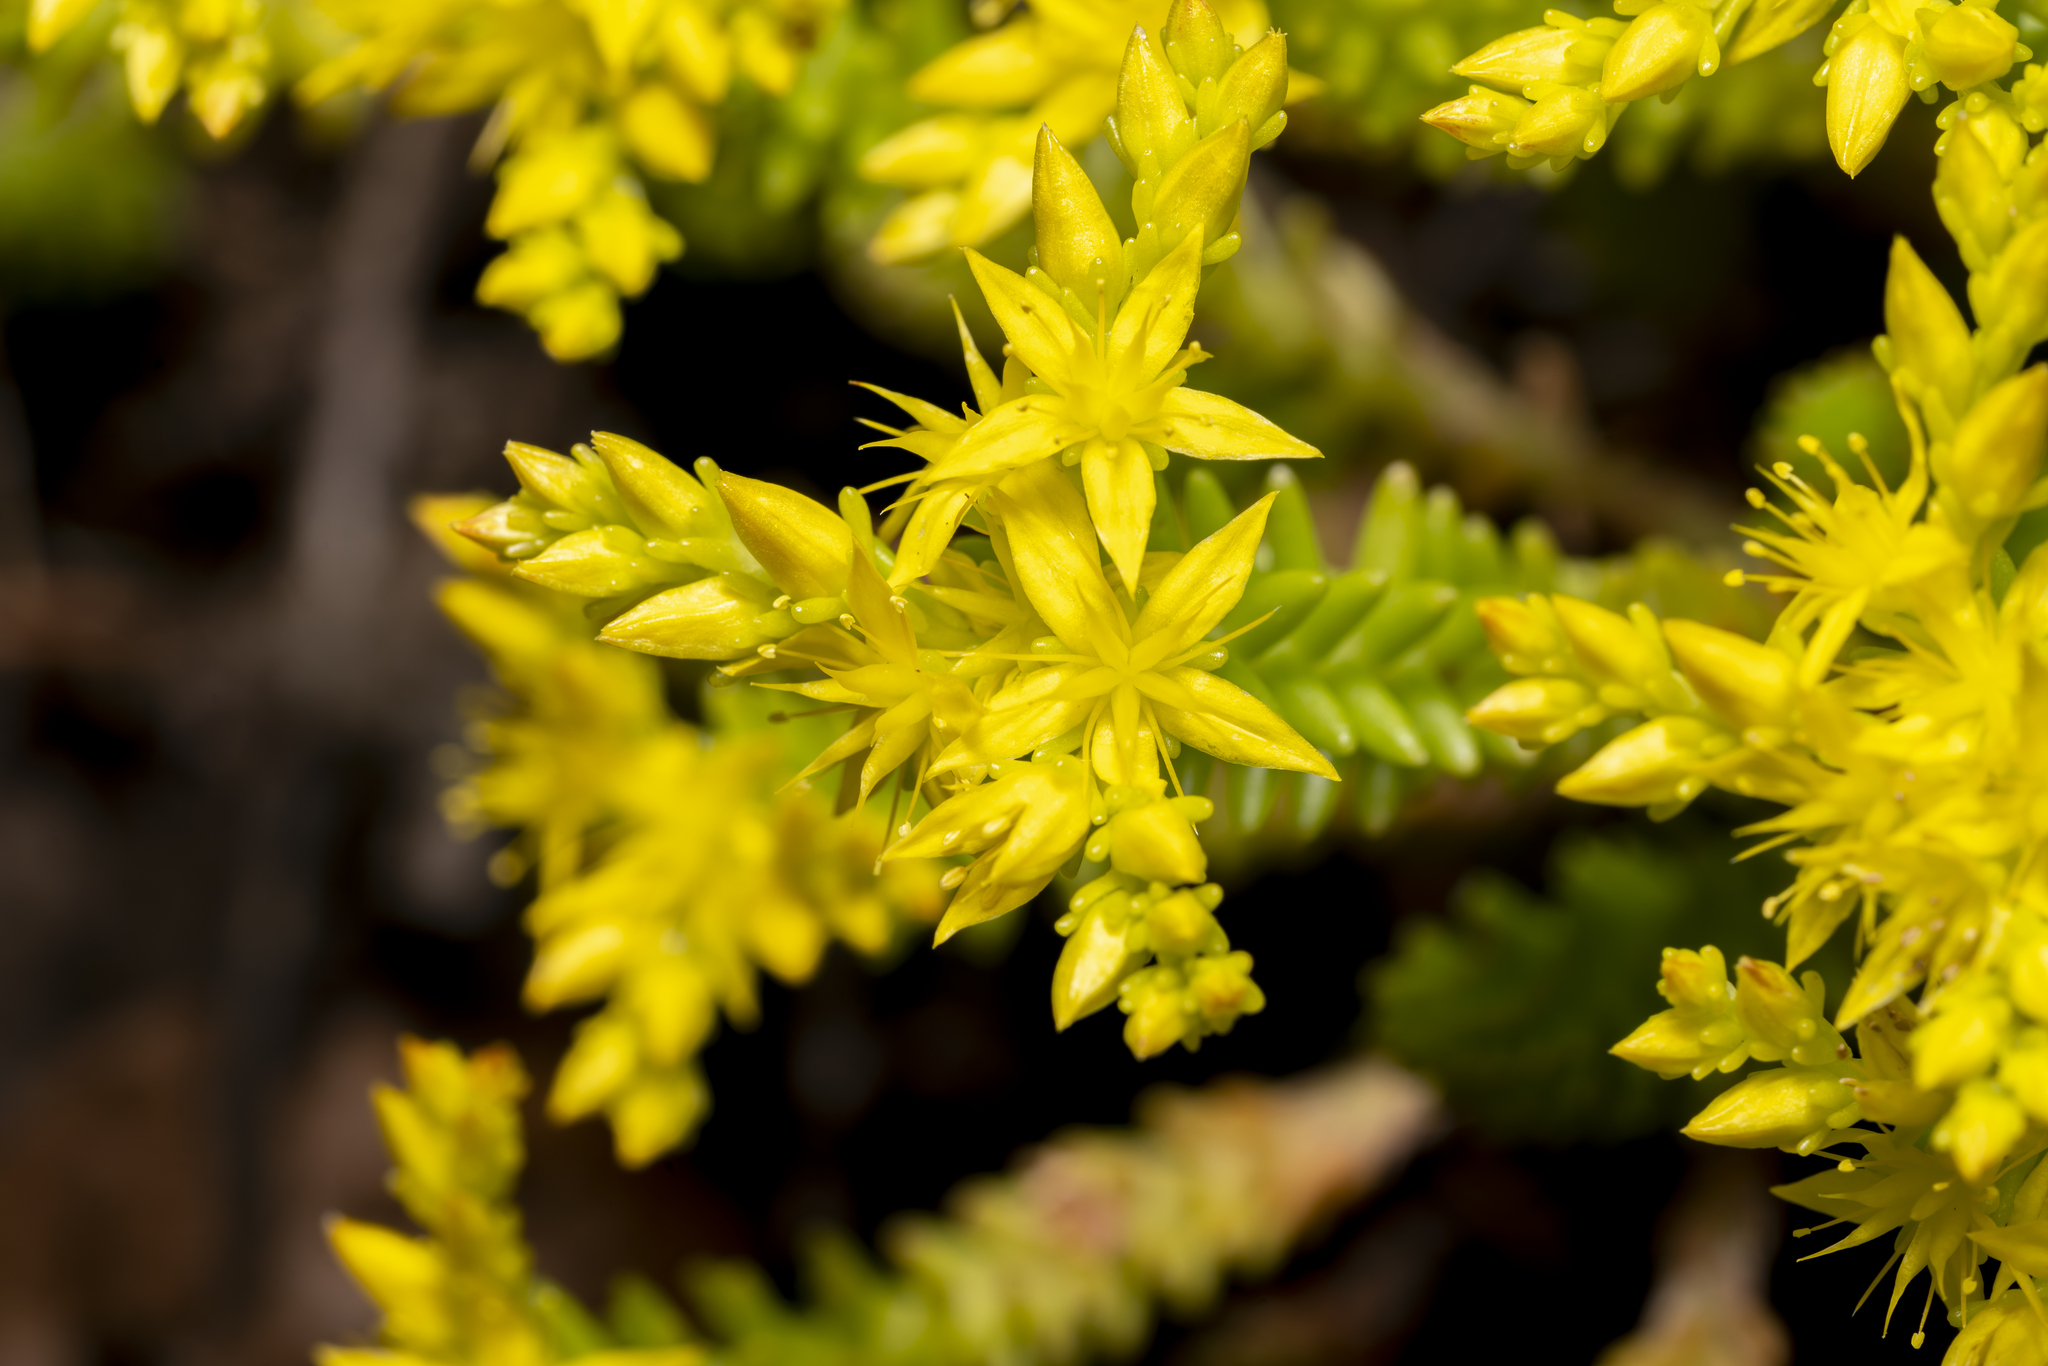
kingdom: Plantae
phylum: Tracheophyta
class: Magnoliopsida
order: Saxifragales
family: Crassulaceae
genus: Sedum
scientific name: Sedum sexangulare
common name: Tasteless stonecrop
